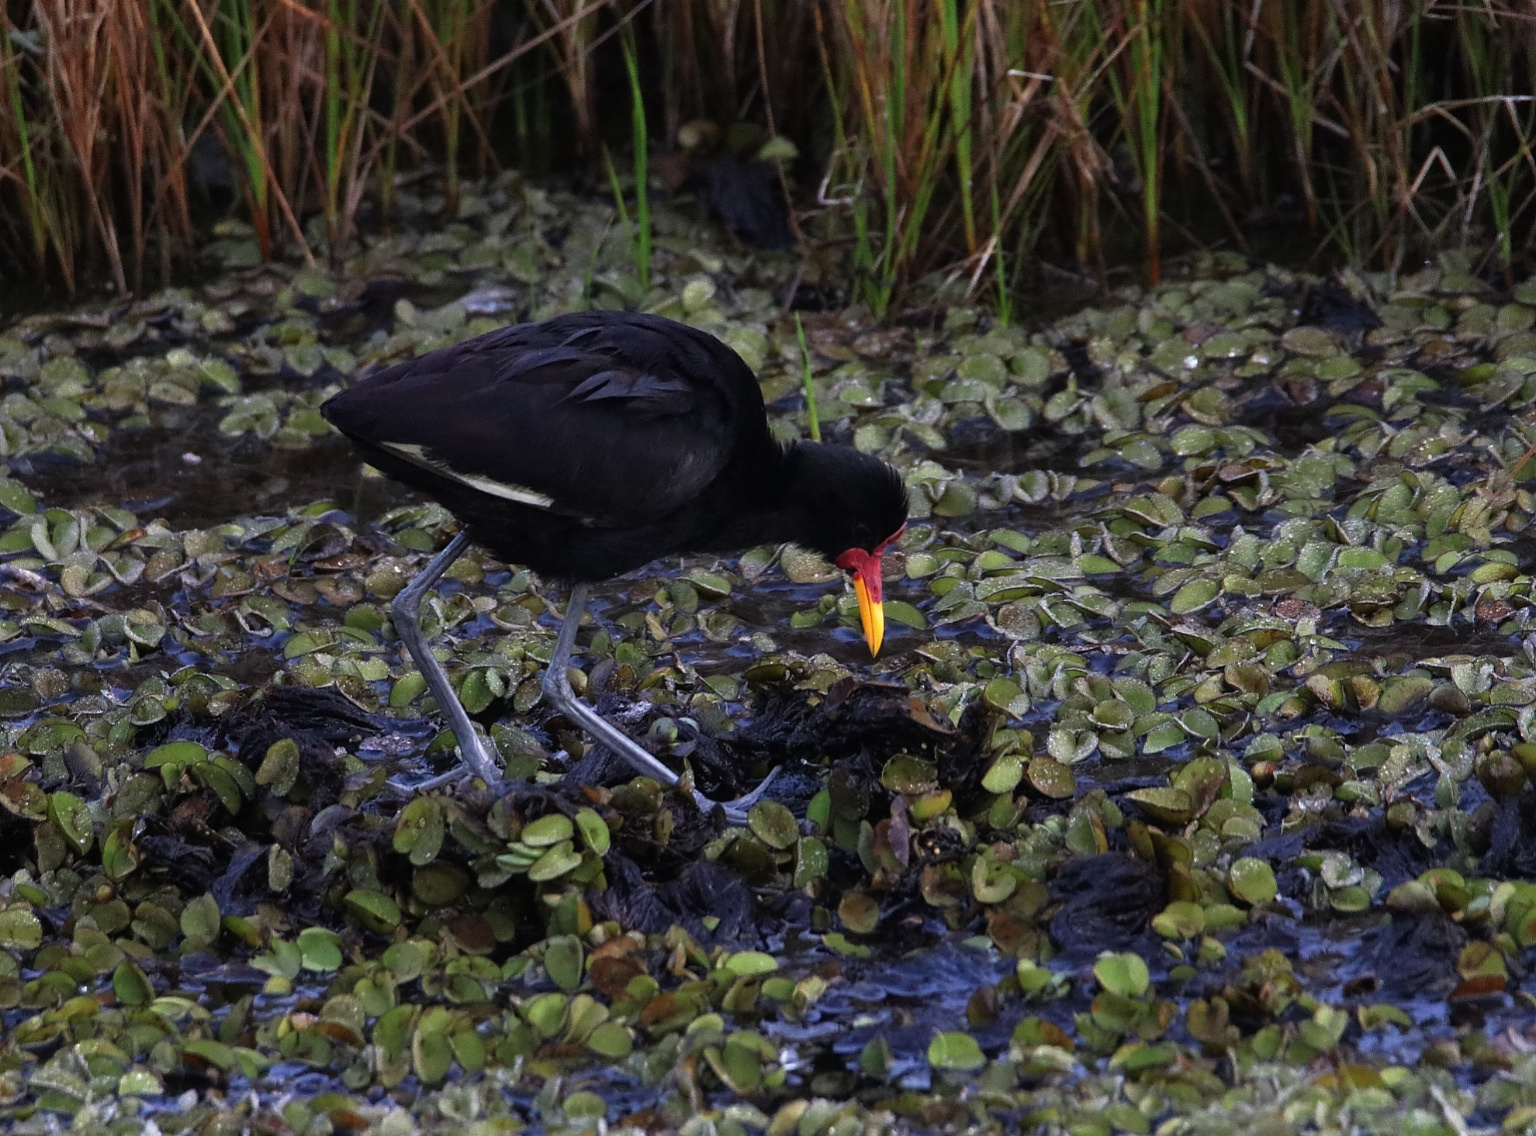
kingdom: Animalia
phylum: Chordata
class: Aves
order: Charadriiformes
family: Jacanidae
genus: Jacana
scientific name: Jacana jacana
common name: Wattled jacana
